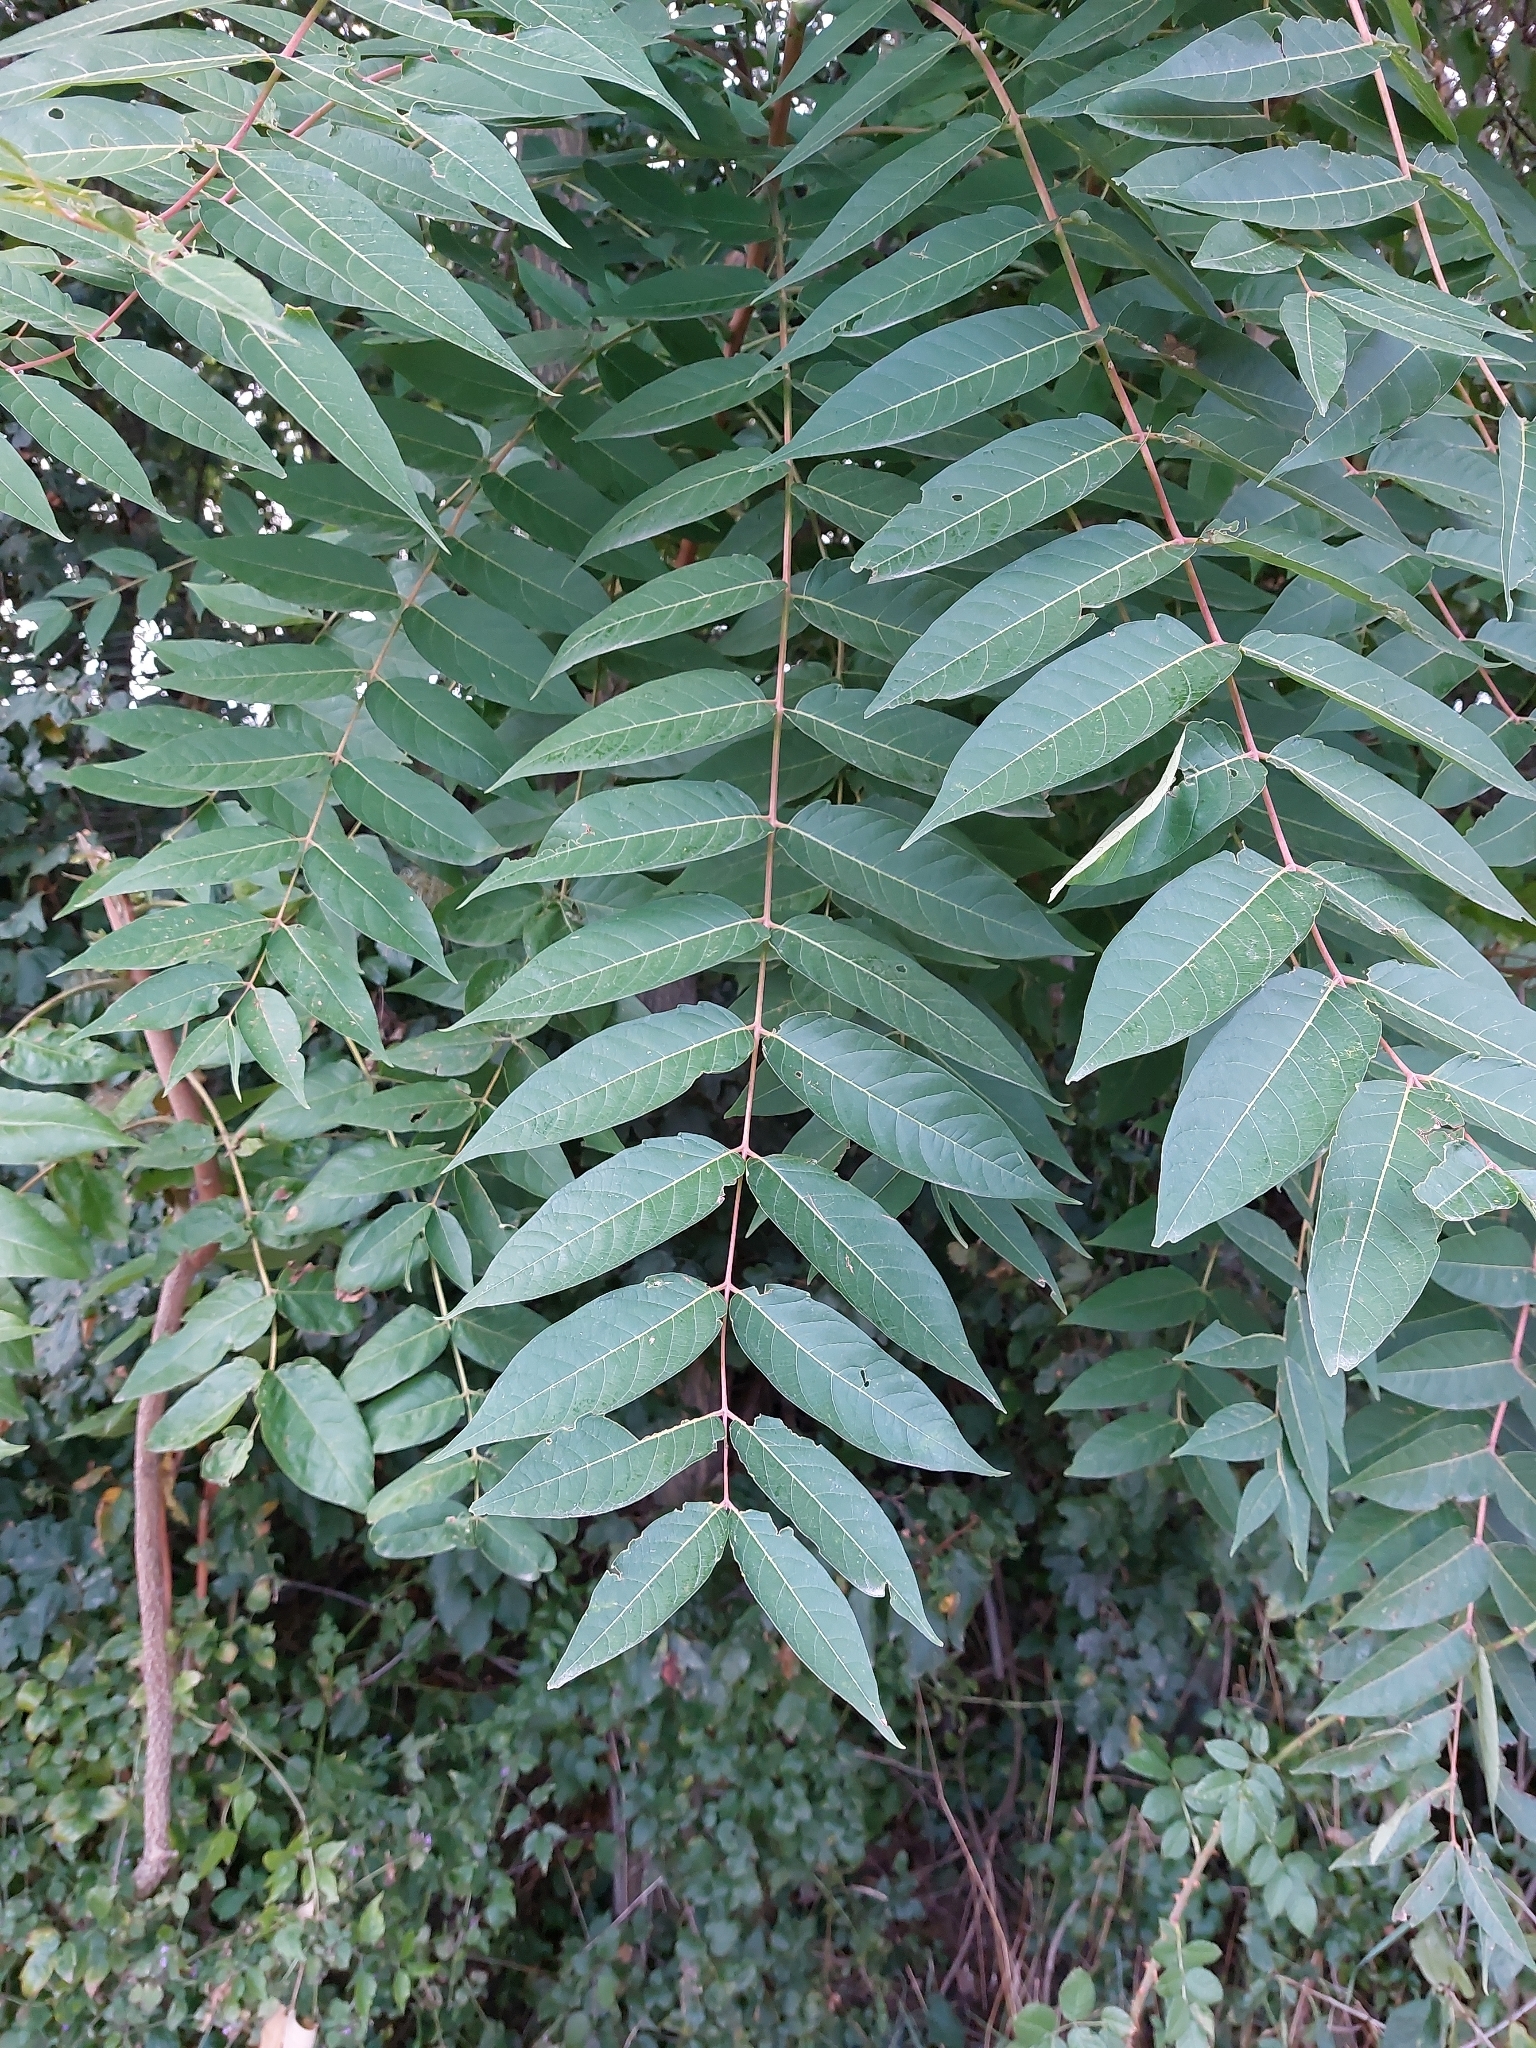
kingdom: Plantae
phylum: Tracheophyta
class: Magnoliopsida
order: Sapindales
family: Simaroubaceae
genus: Ailanthus
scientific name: Ailanthus altissima
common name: Tree-of-heaven
